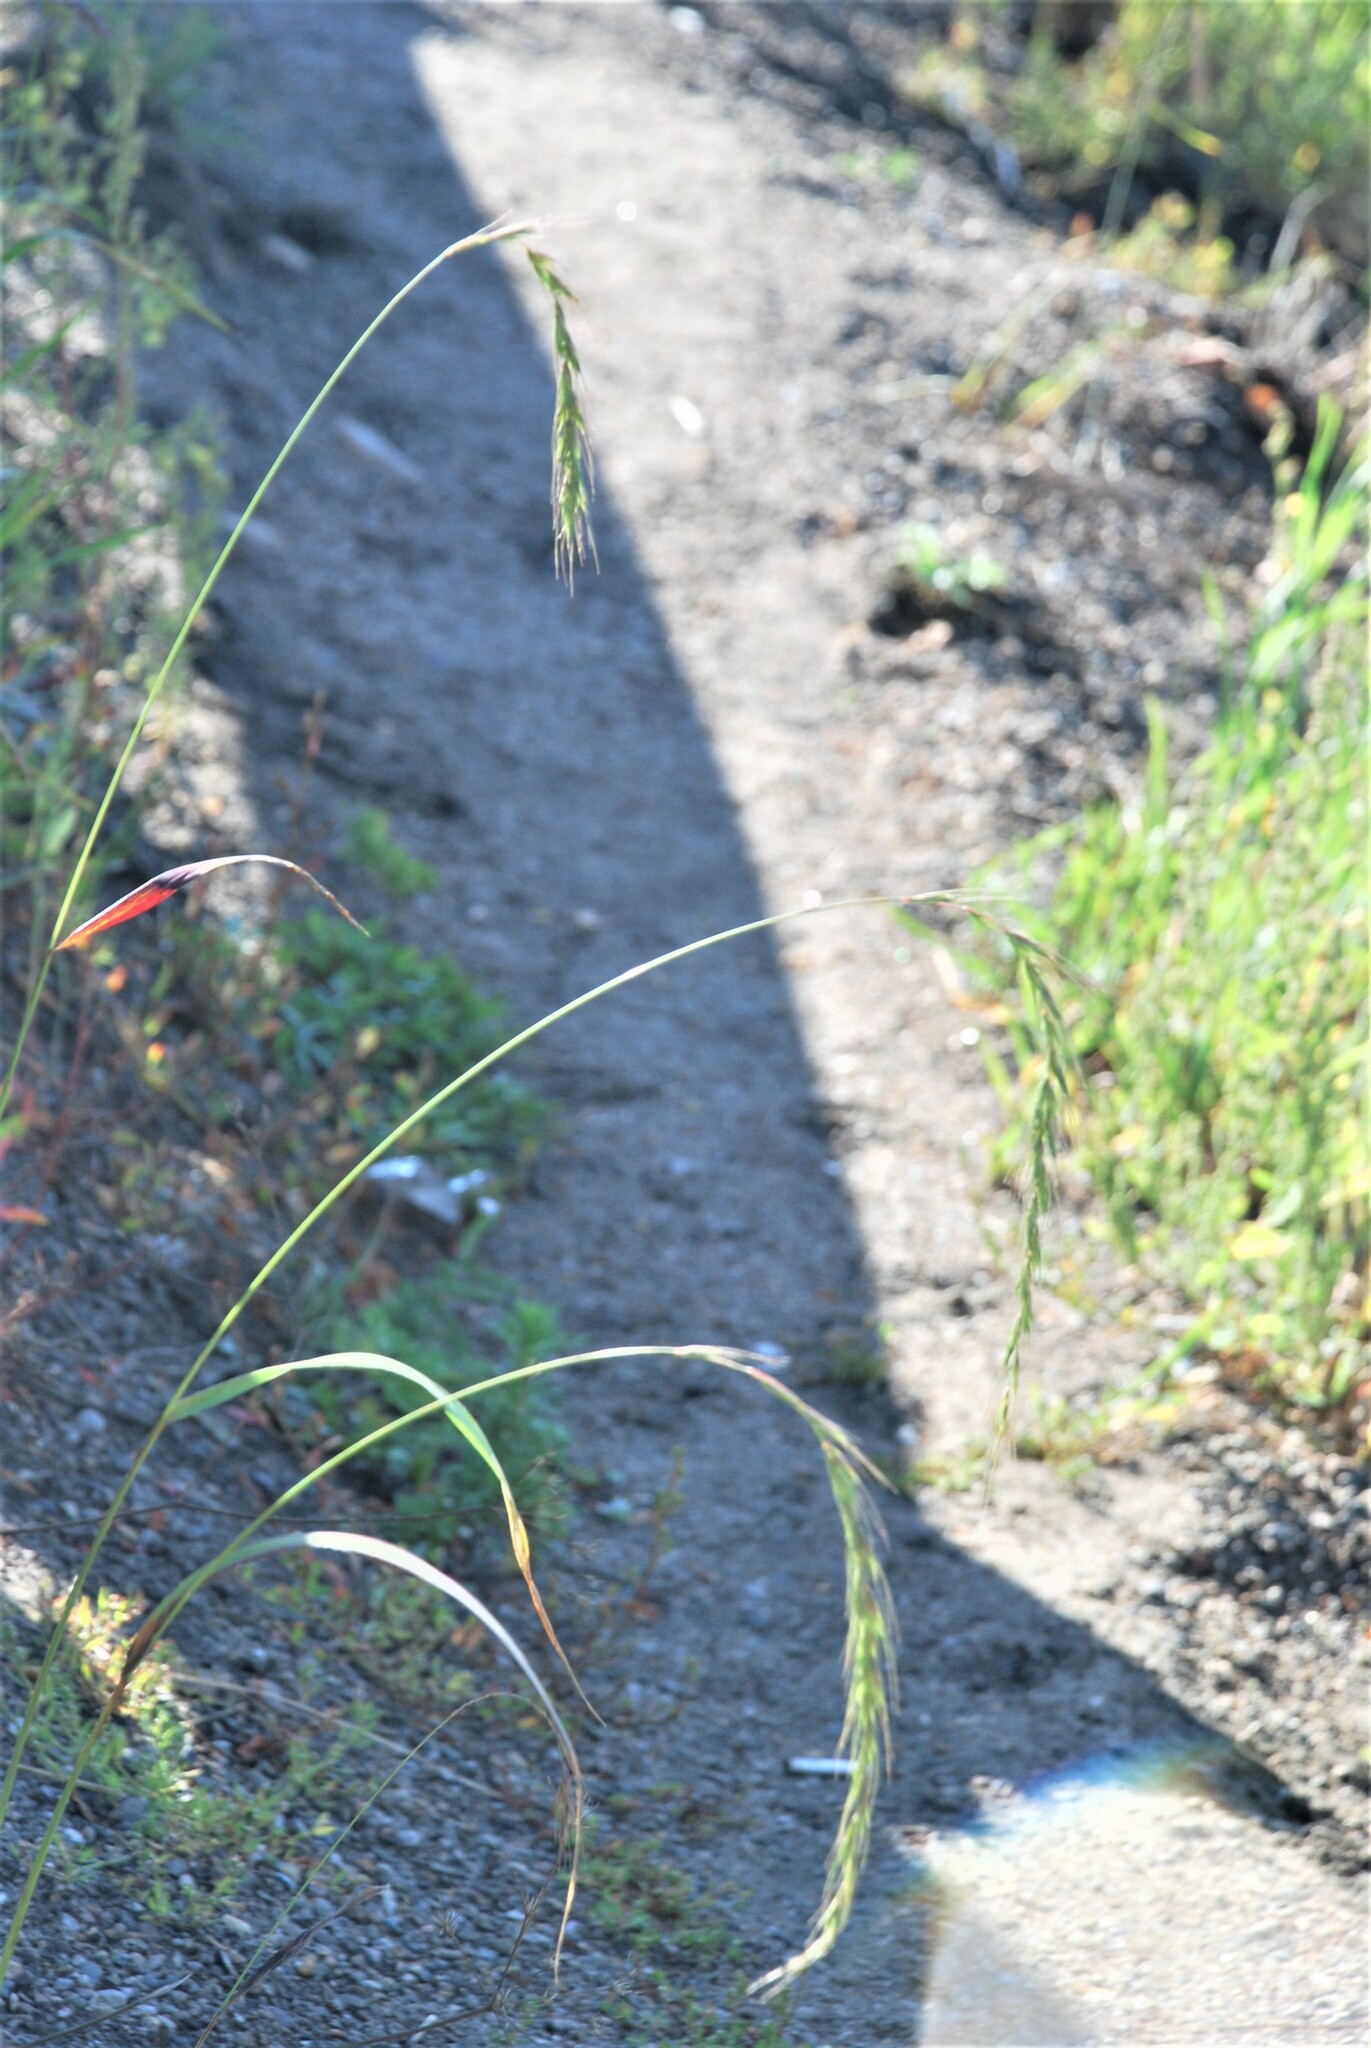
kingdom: Plantae
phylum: Tracheophyta
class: Liliopsida
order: Poales
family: Poaceae
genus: Elymus
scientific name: Elymus sibiricus
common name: Siberian wildrye
